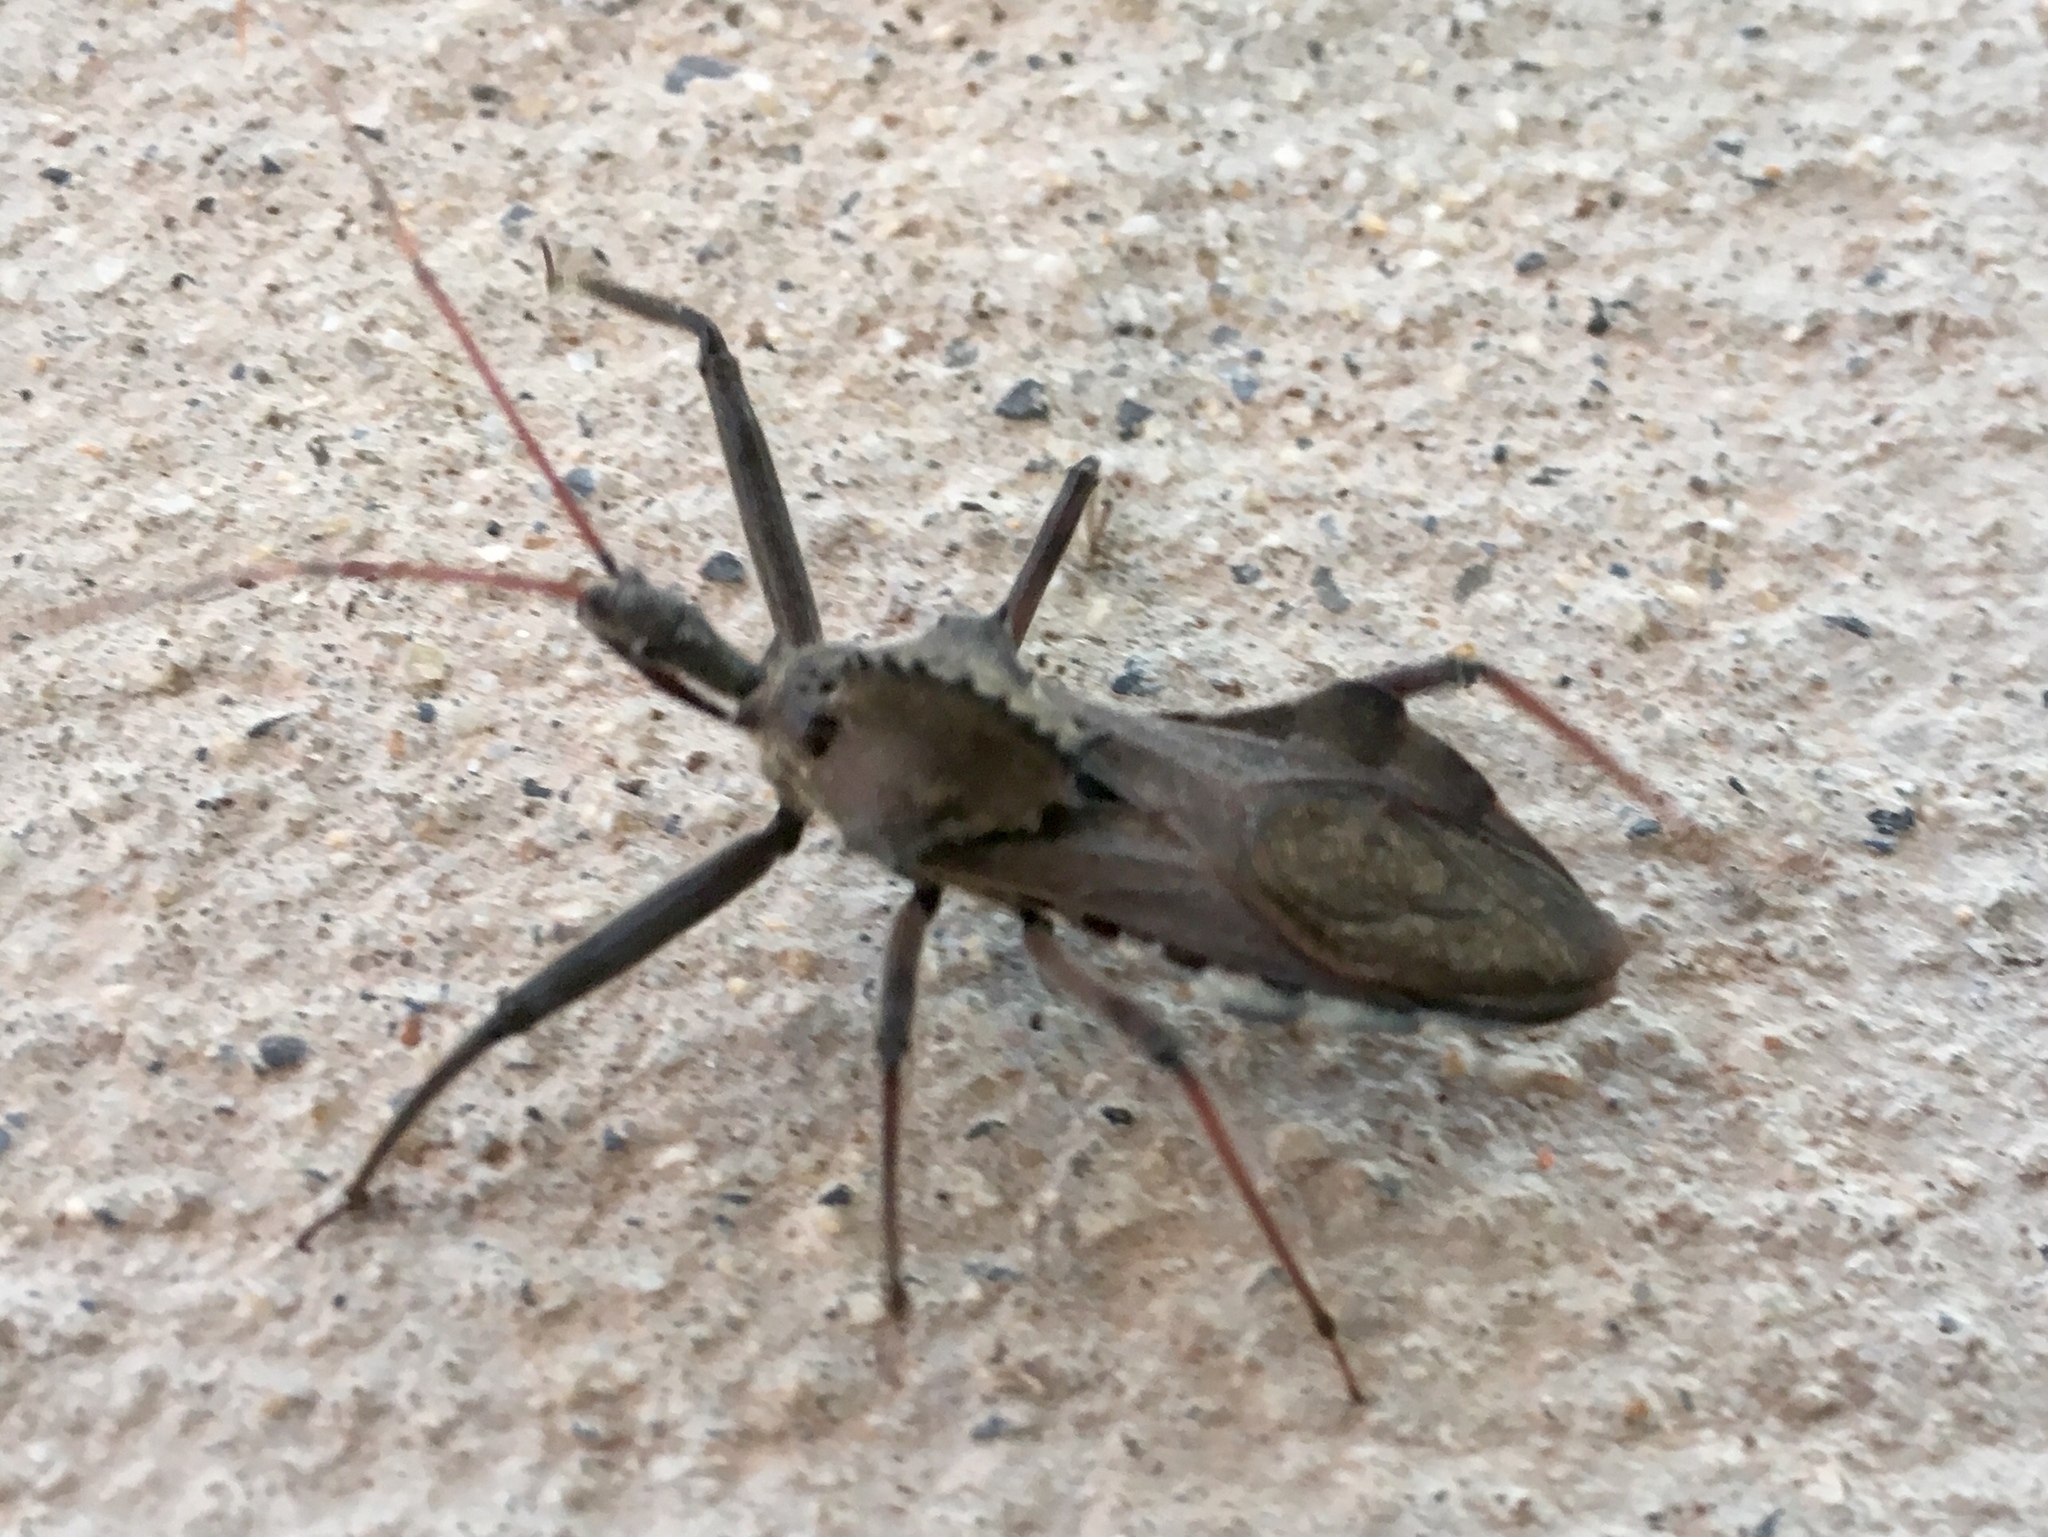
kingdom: Animalia
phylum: Arthropoda
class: Insecta
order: Hemiptera
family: Reduviidae
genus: Arilus
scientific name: Arilus cristatus
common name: North american wheel bug
